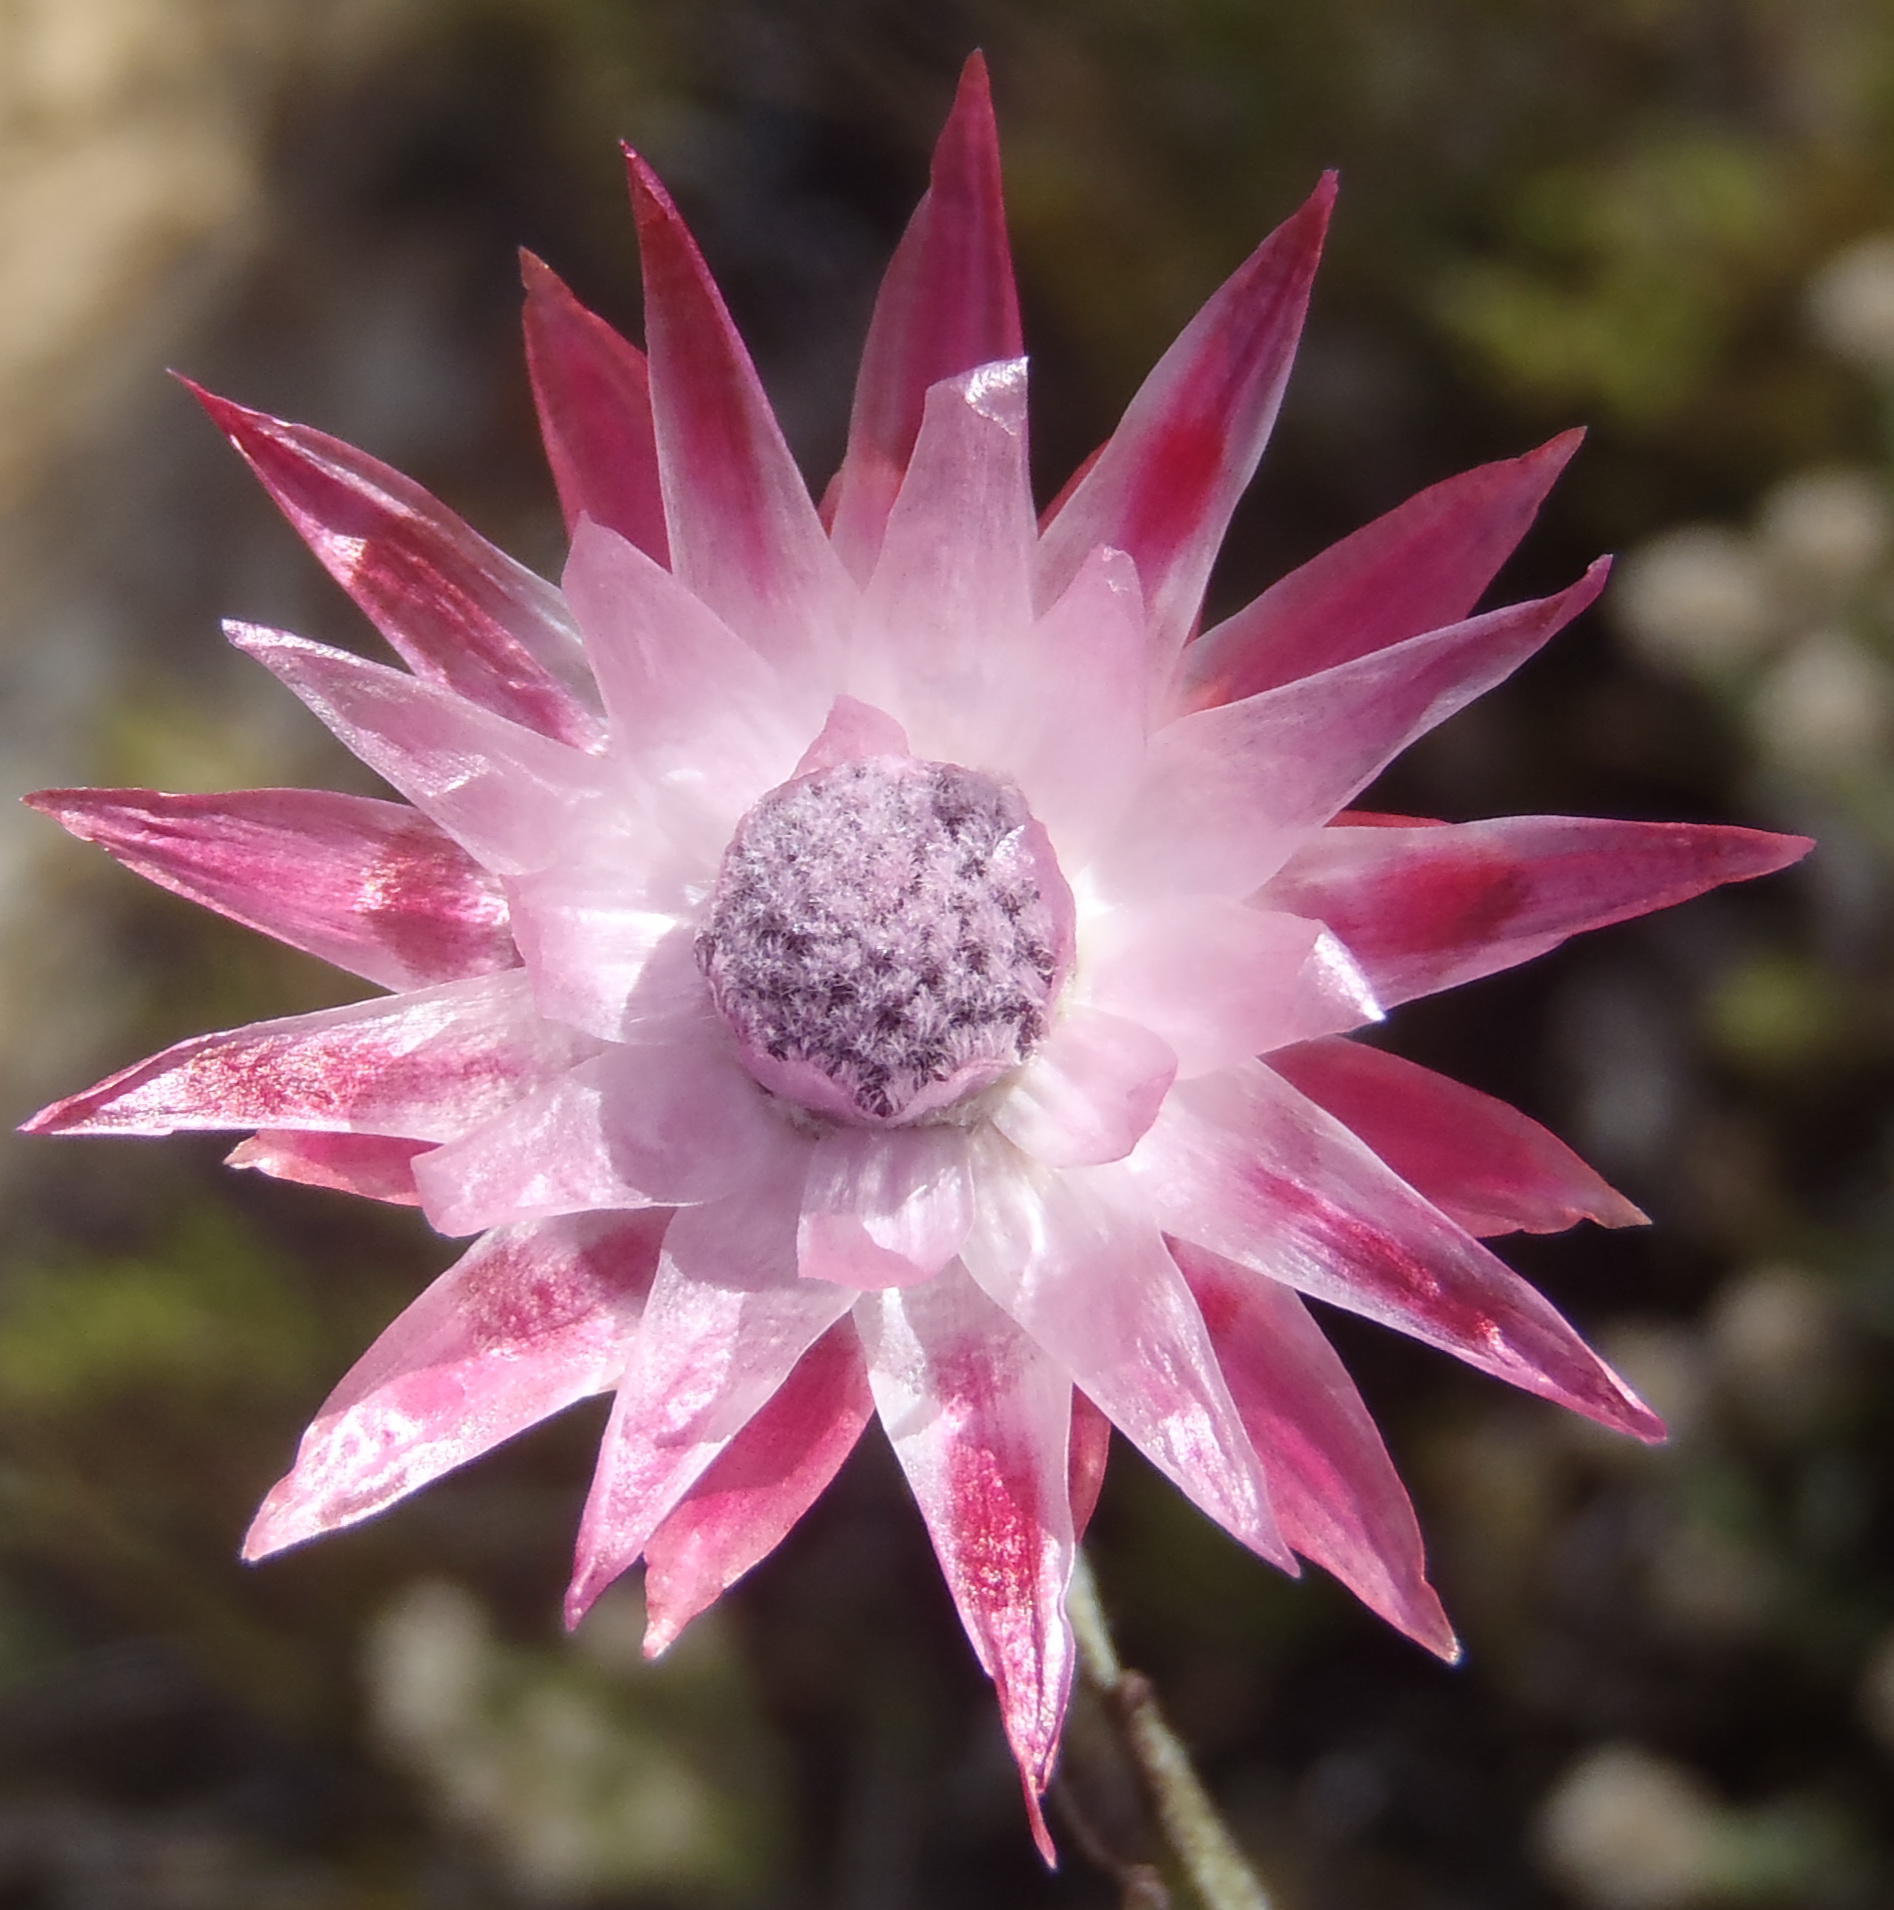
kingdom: Plantae
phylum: Tracheophyta
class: Magnoliopsida
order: Asterales
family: Asteraceae
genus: Syncarpha
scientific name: Syncarpha canescens
